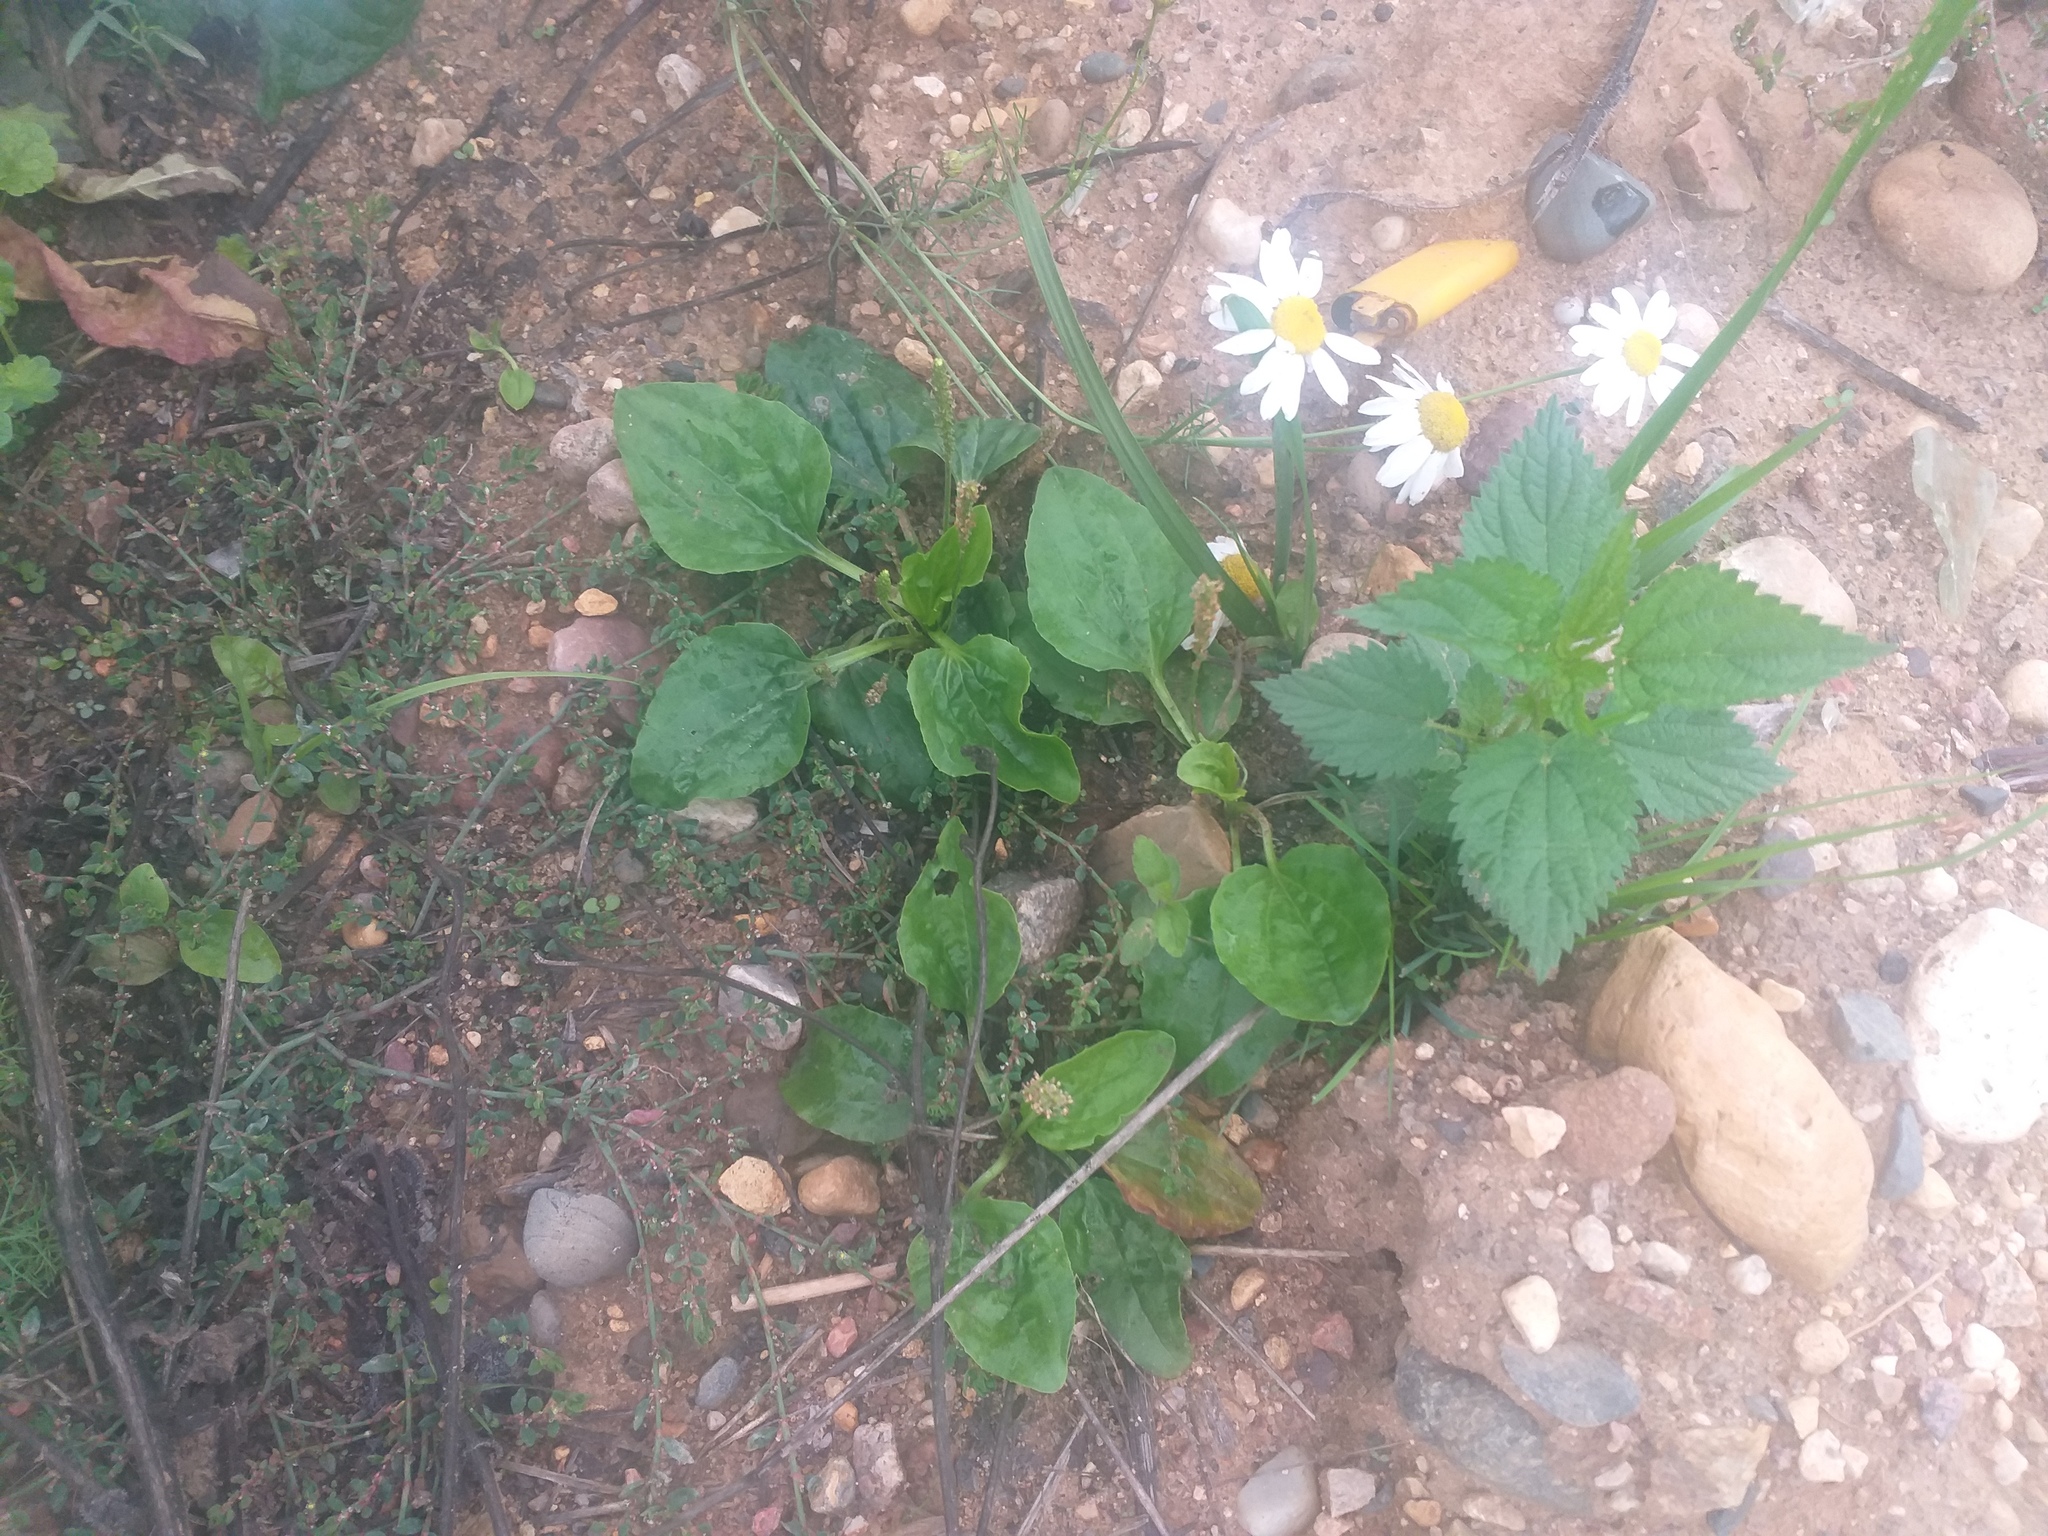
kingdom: Plantae
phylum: Tracheophyta
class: Magnoliopsida
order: Lamiales
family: Plantaginaceae
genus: Plantago
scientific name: Plantago major
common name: Common plantain
